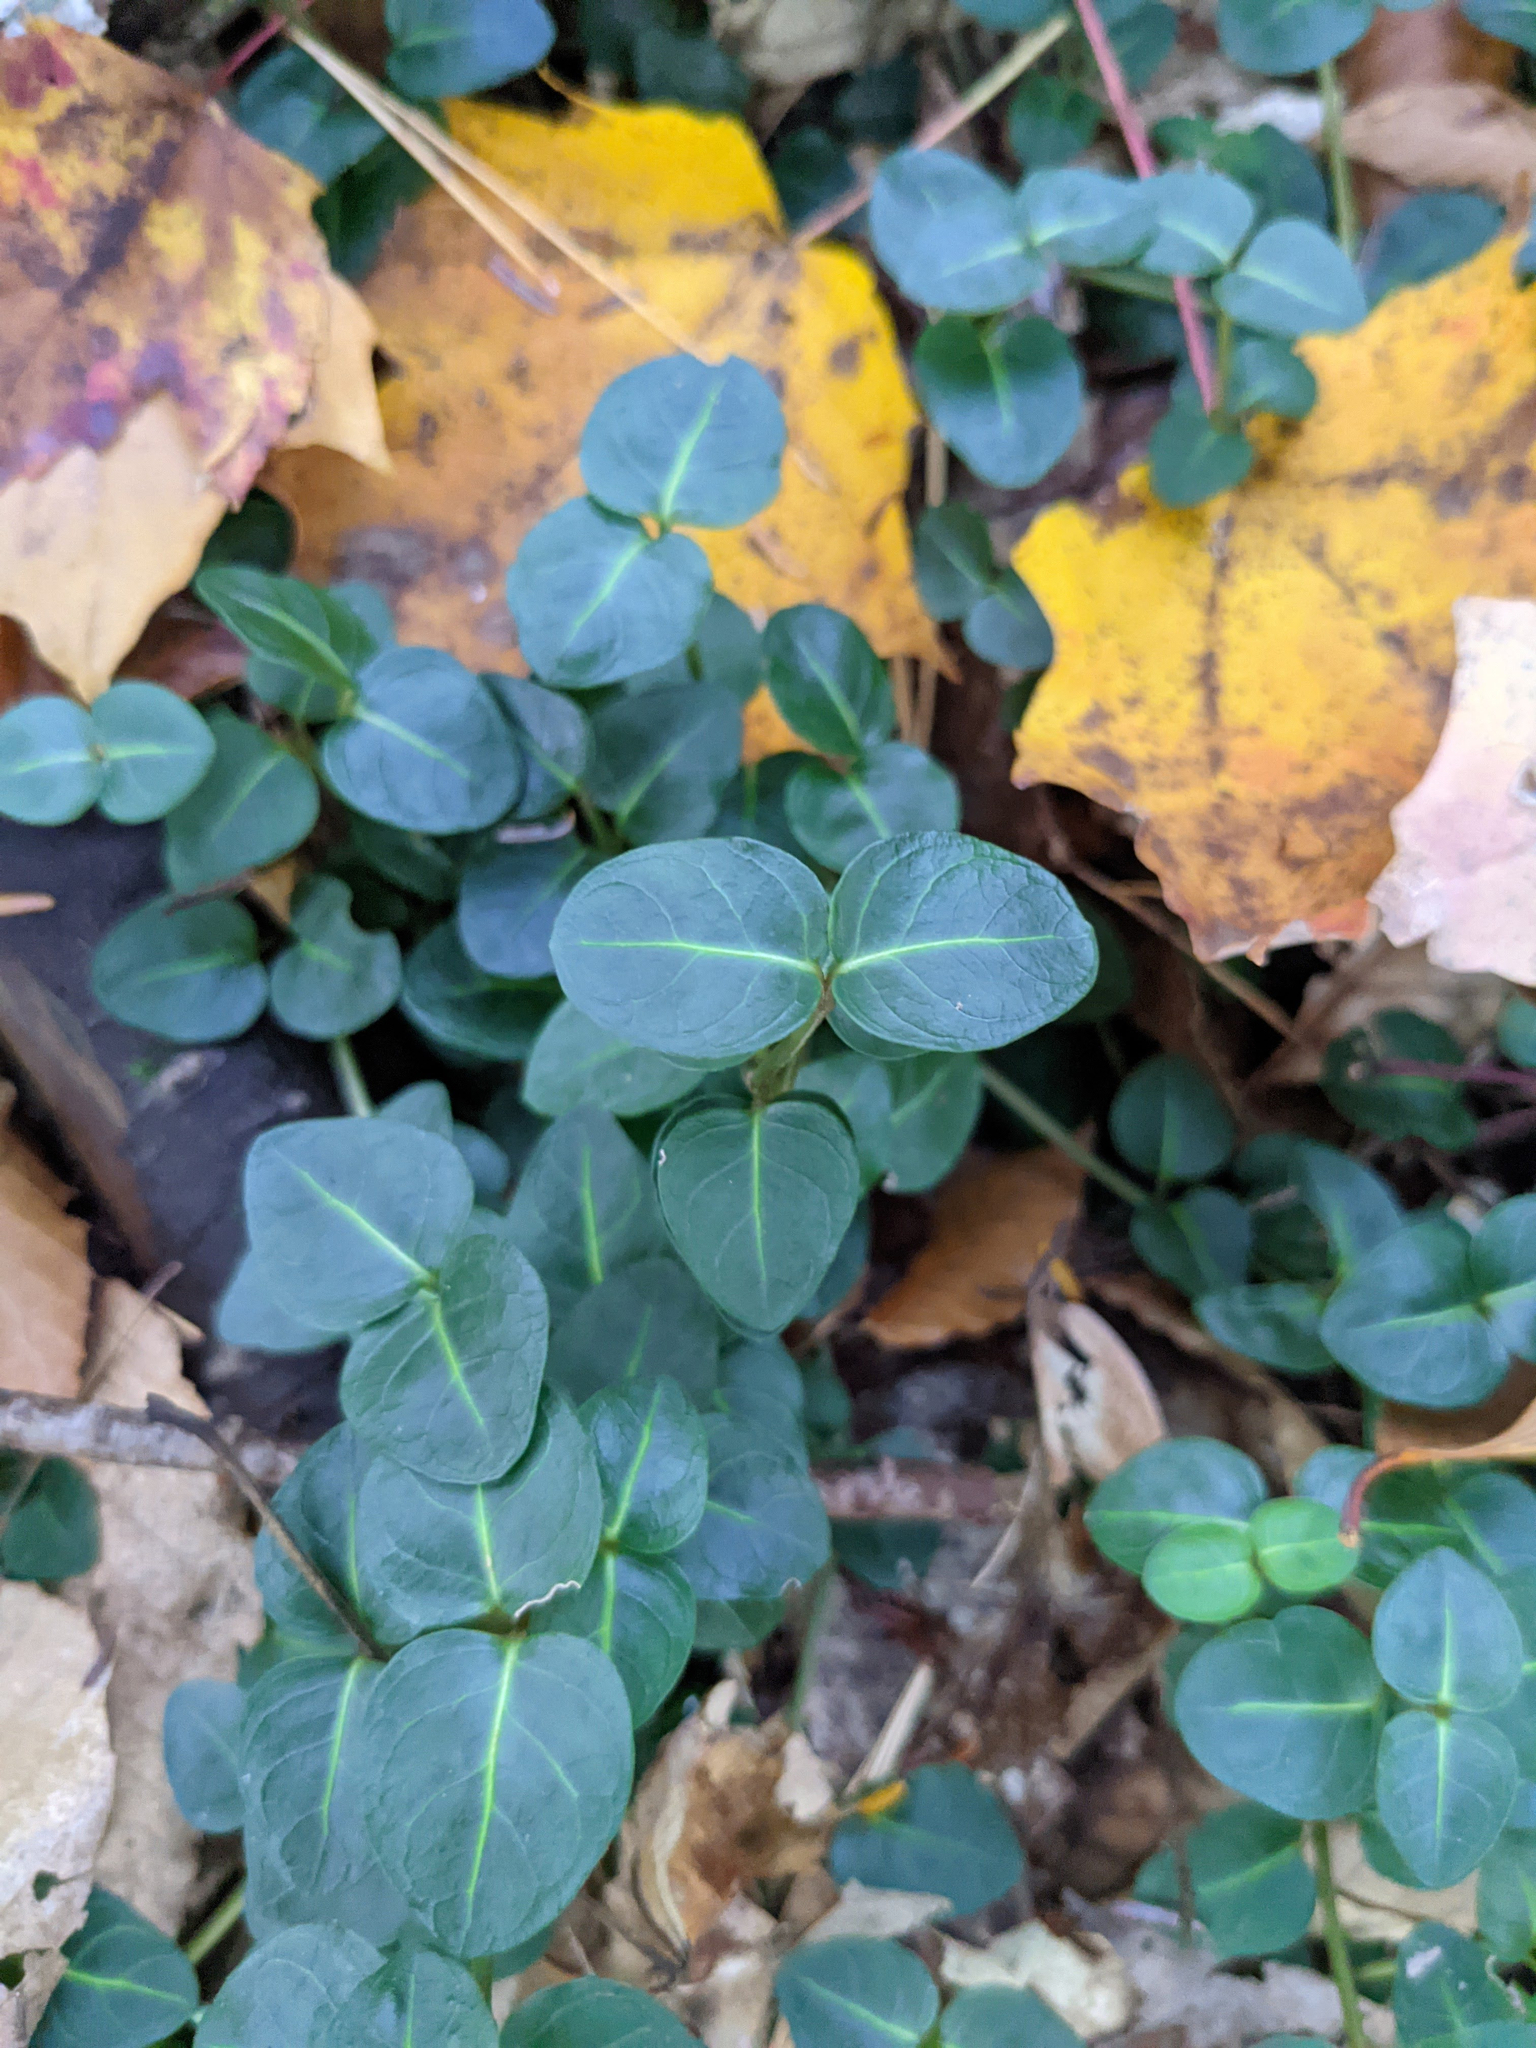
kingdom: Plantae
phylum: Tracheophyta
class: Magnoliopsida
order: Gentianales
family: Rubiaceae
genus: Mitchella
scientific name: Mitchella repens
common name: Partridge-berry
